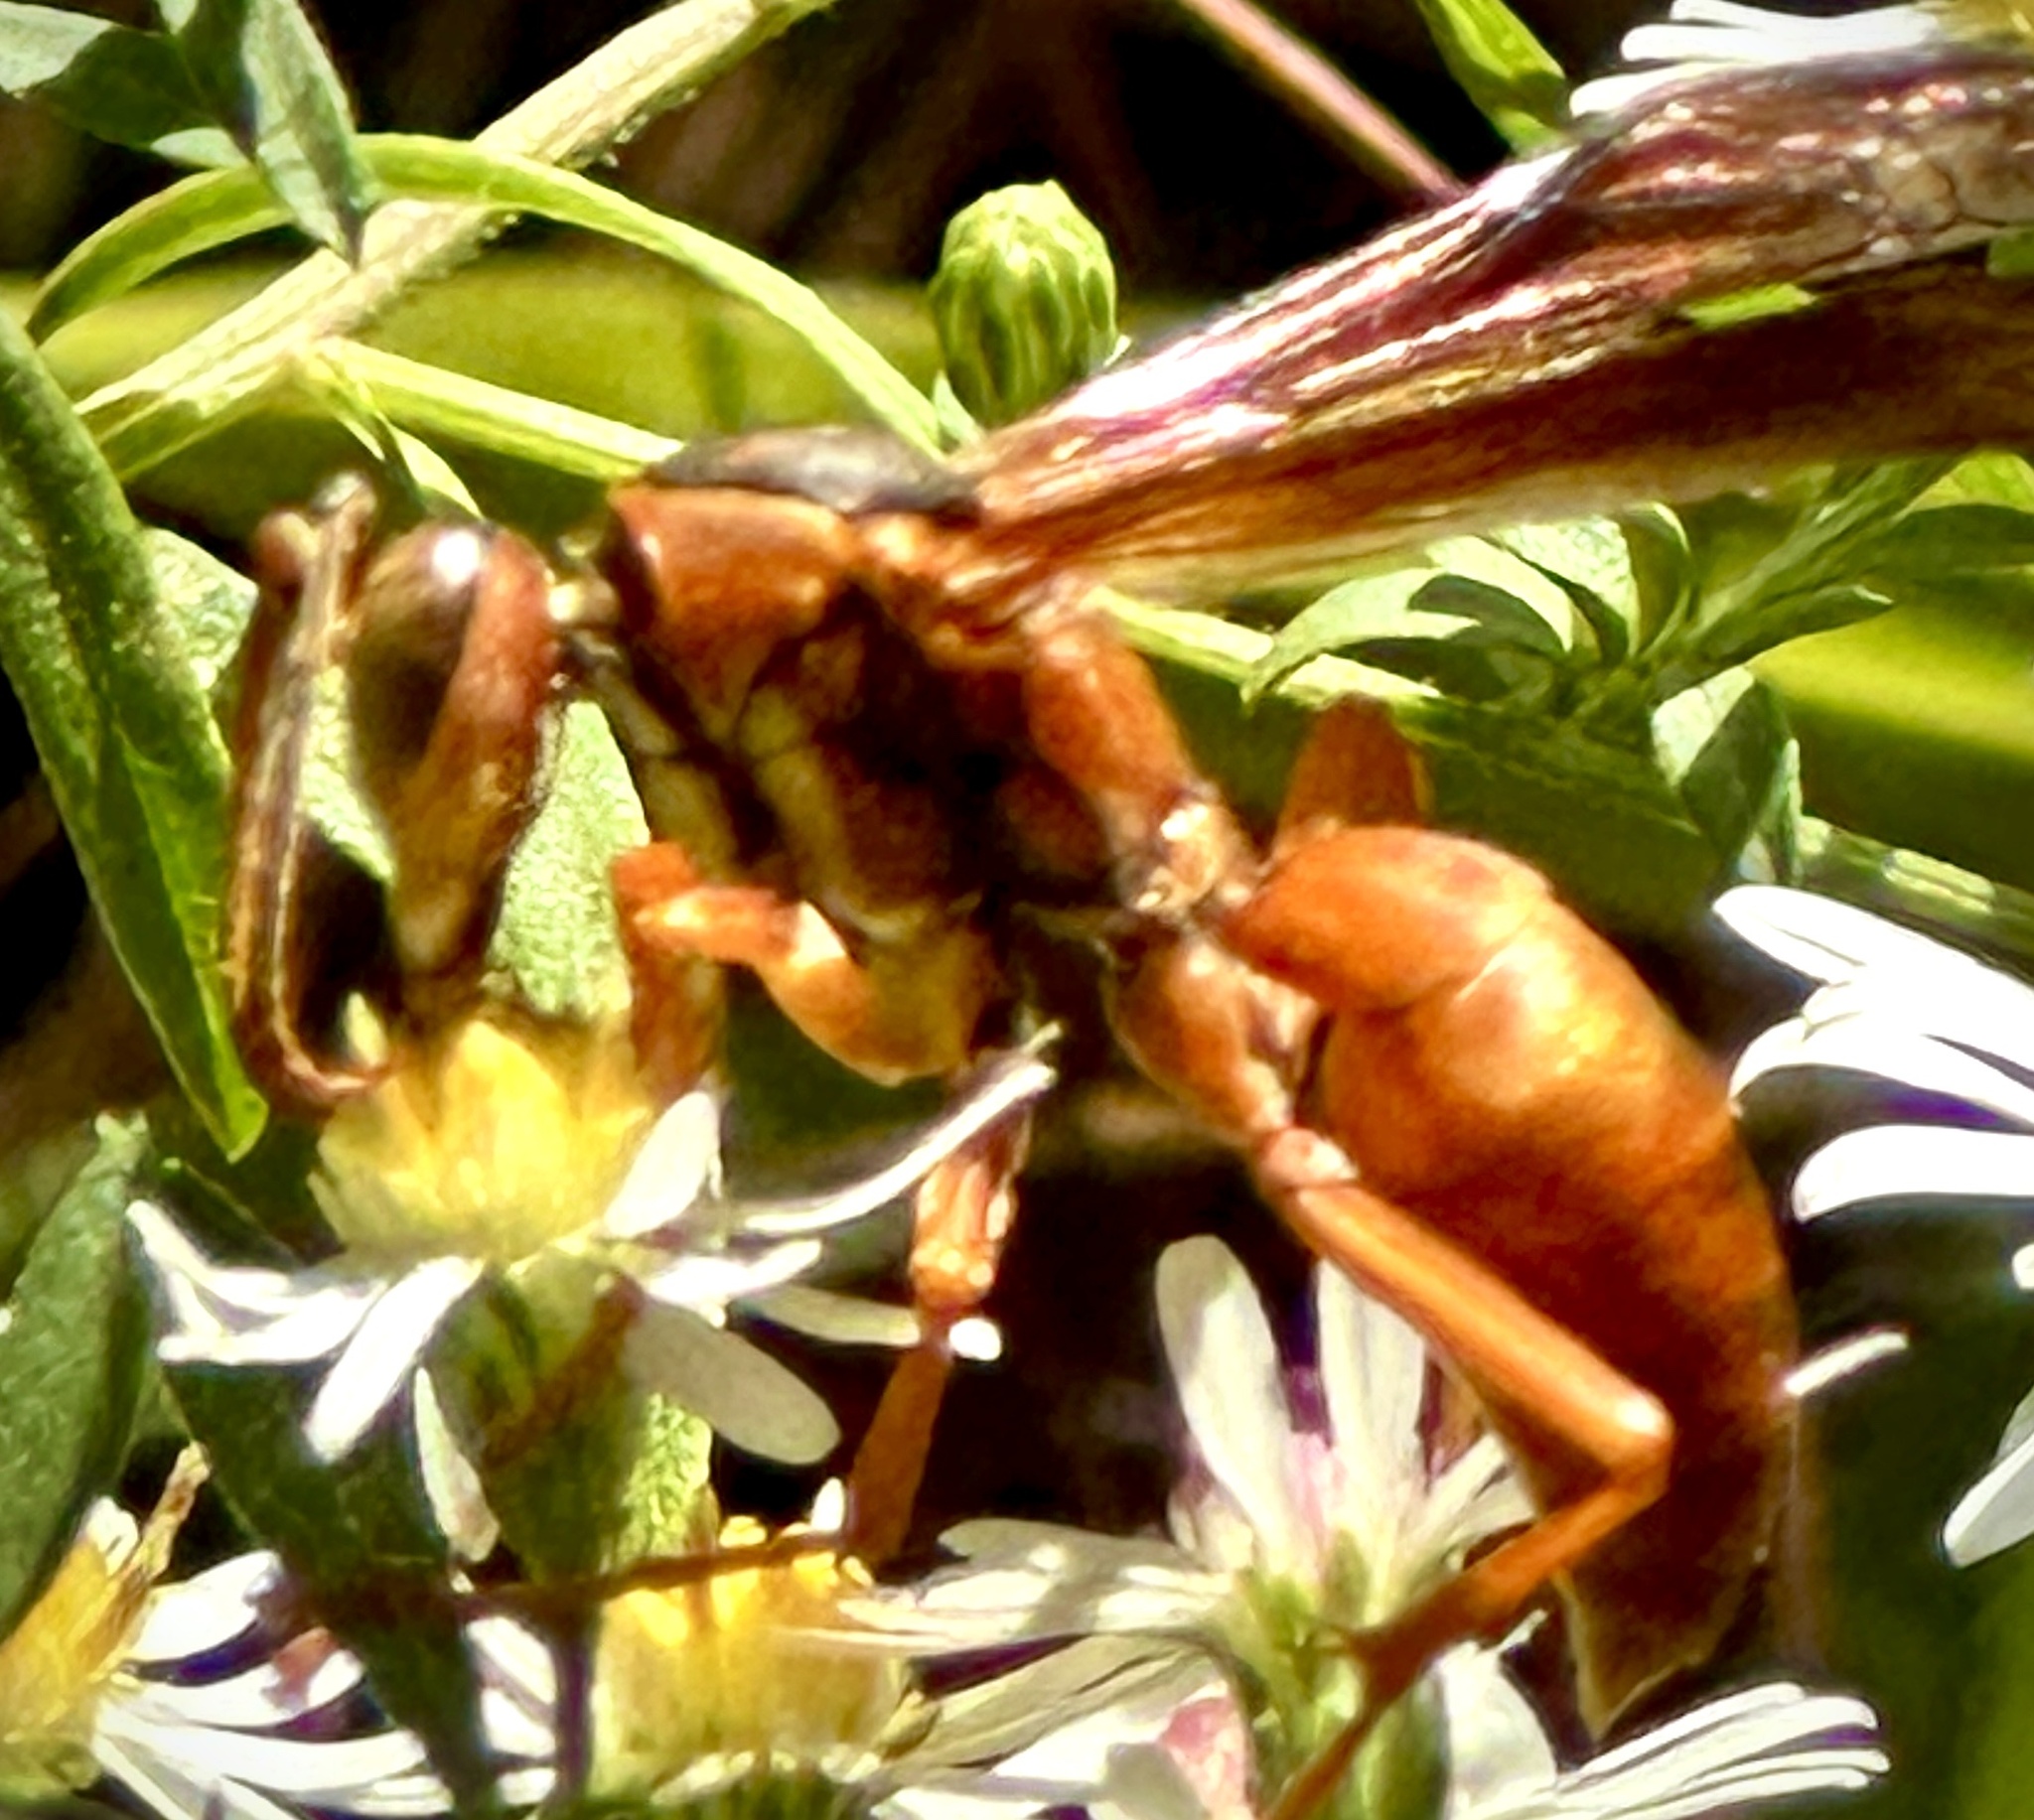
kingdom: Animalia
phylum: Arthropoda
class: Insecta
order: Hymenoptera
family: Eumenidae
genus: Polistes
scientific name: Polistes carolina
